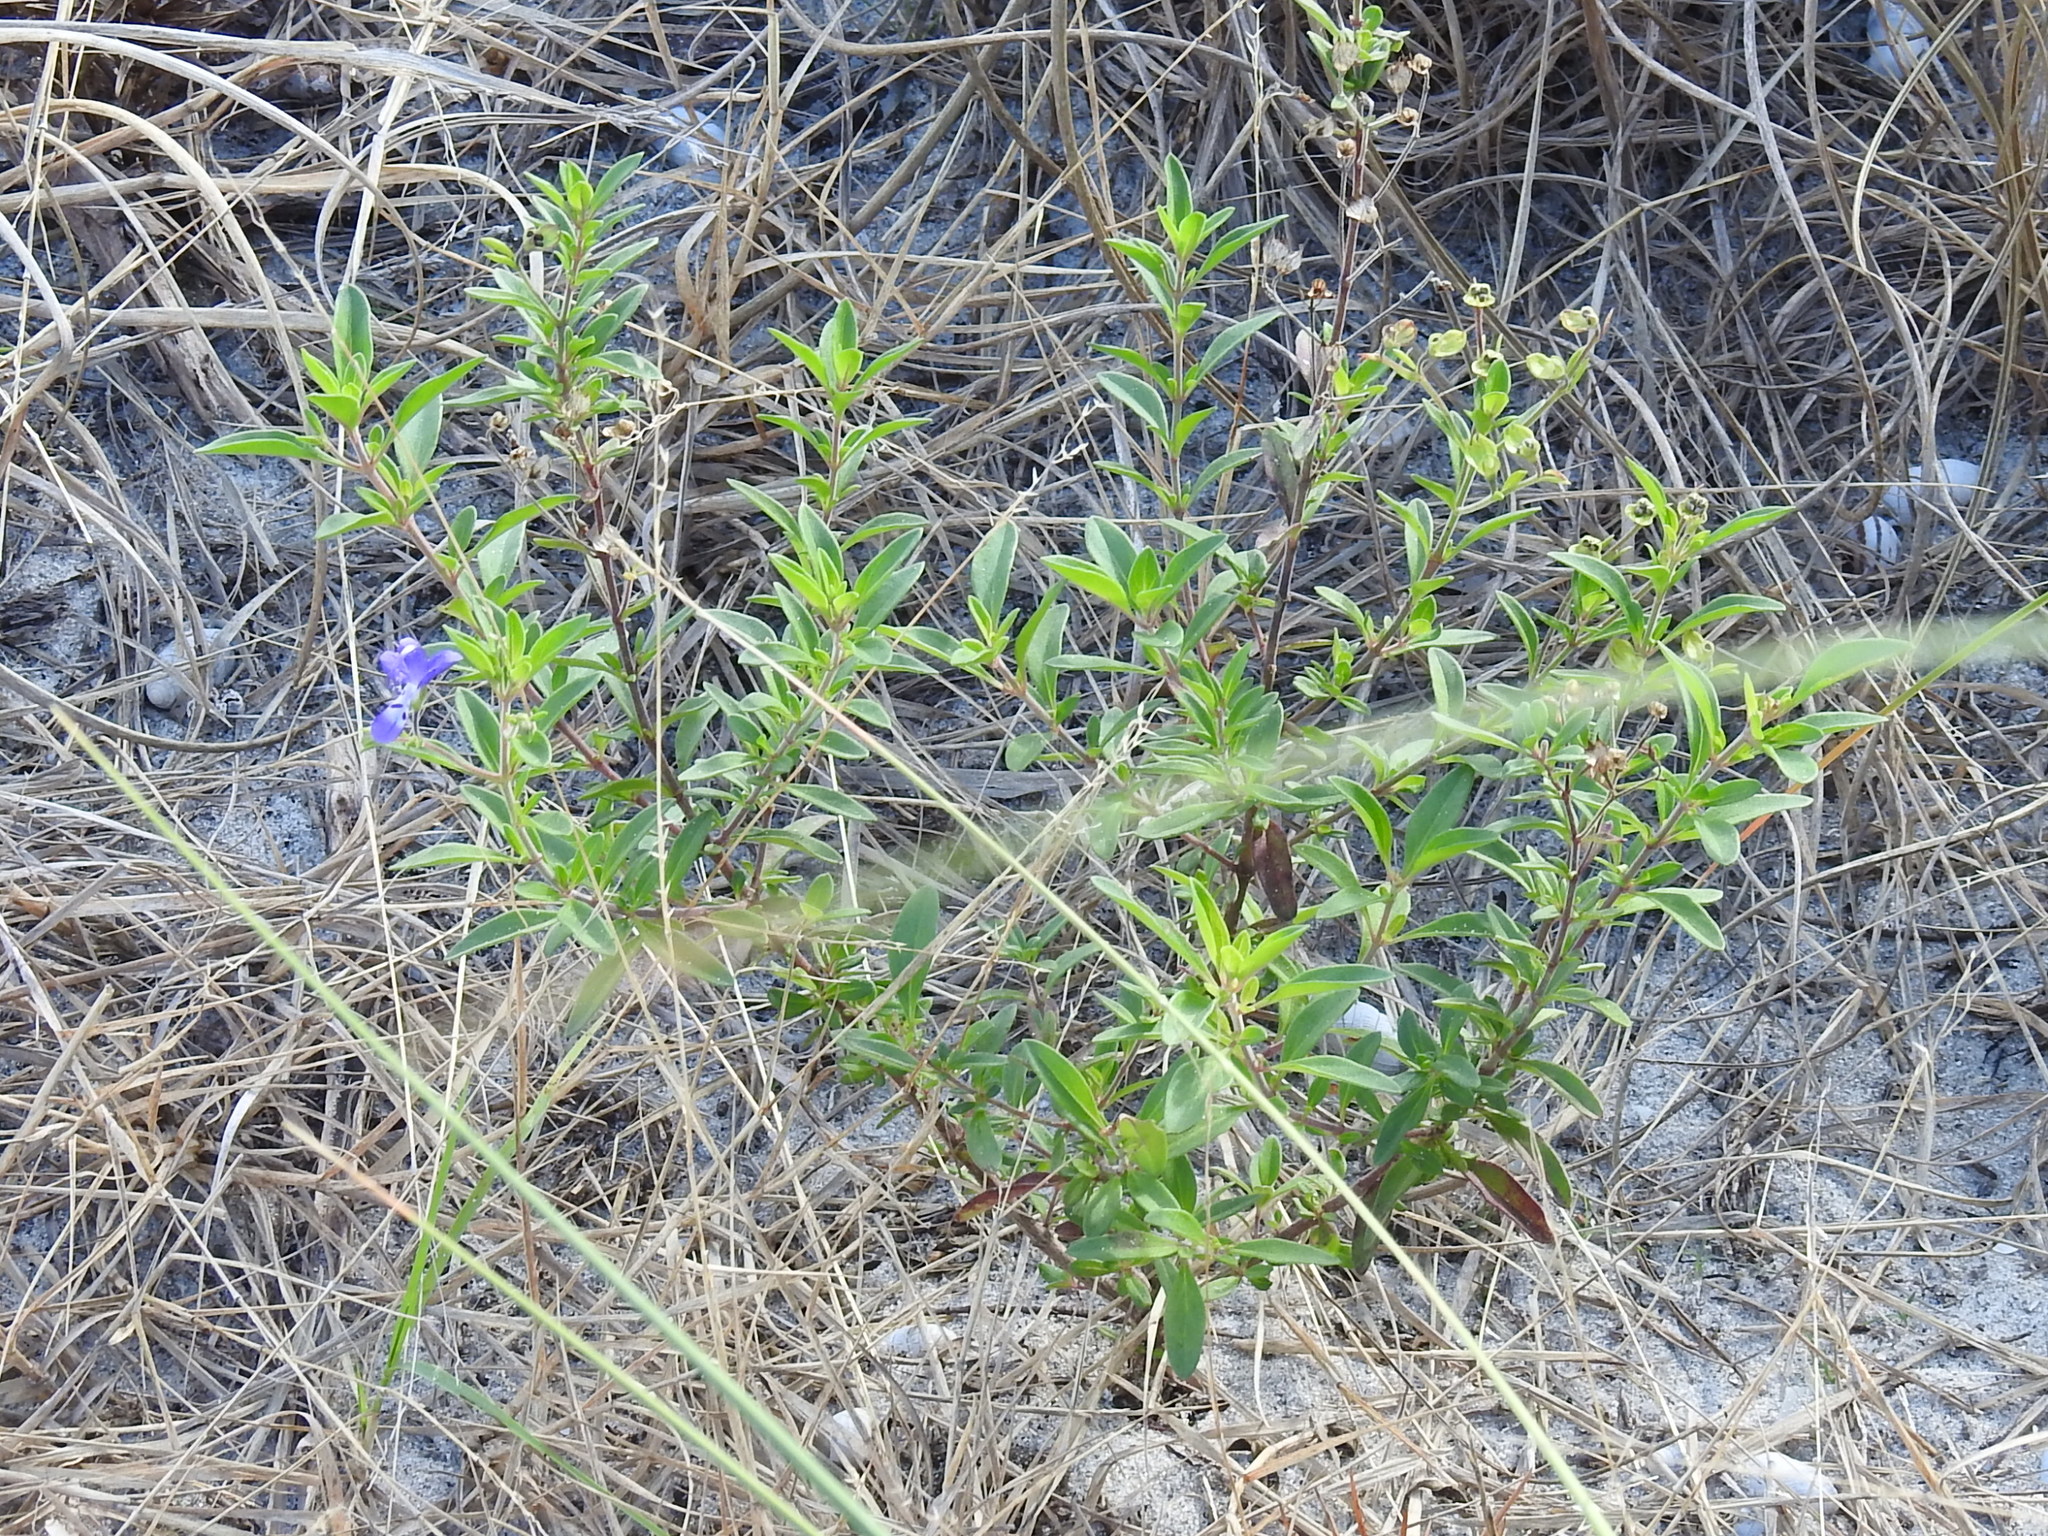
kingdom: Plantae
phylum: Tracheophyta
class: Magnoliopsida
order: Lamiales
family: Lamiaceae
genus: Trichostema
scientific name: Trichostema
